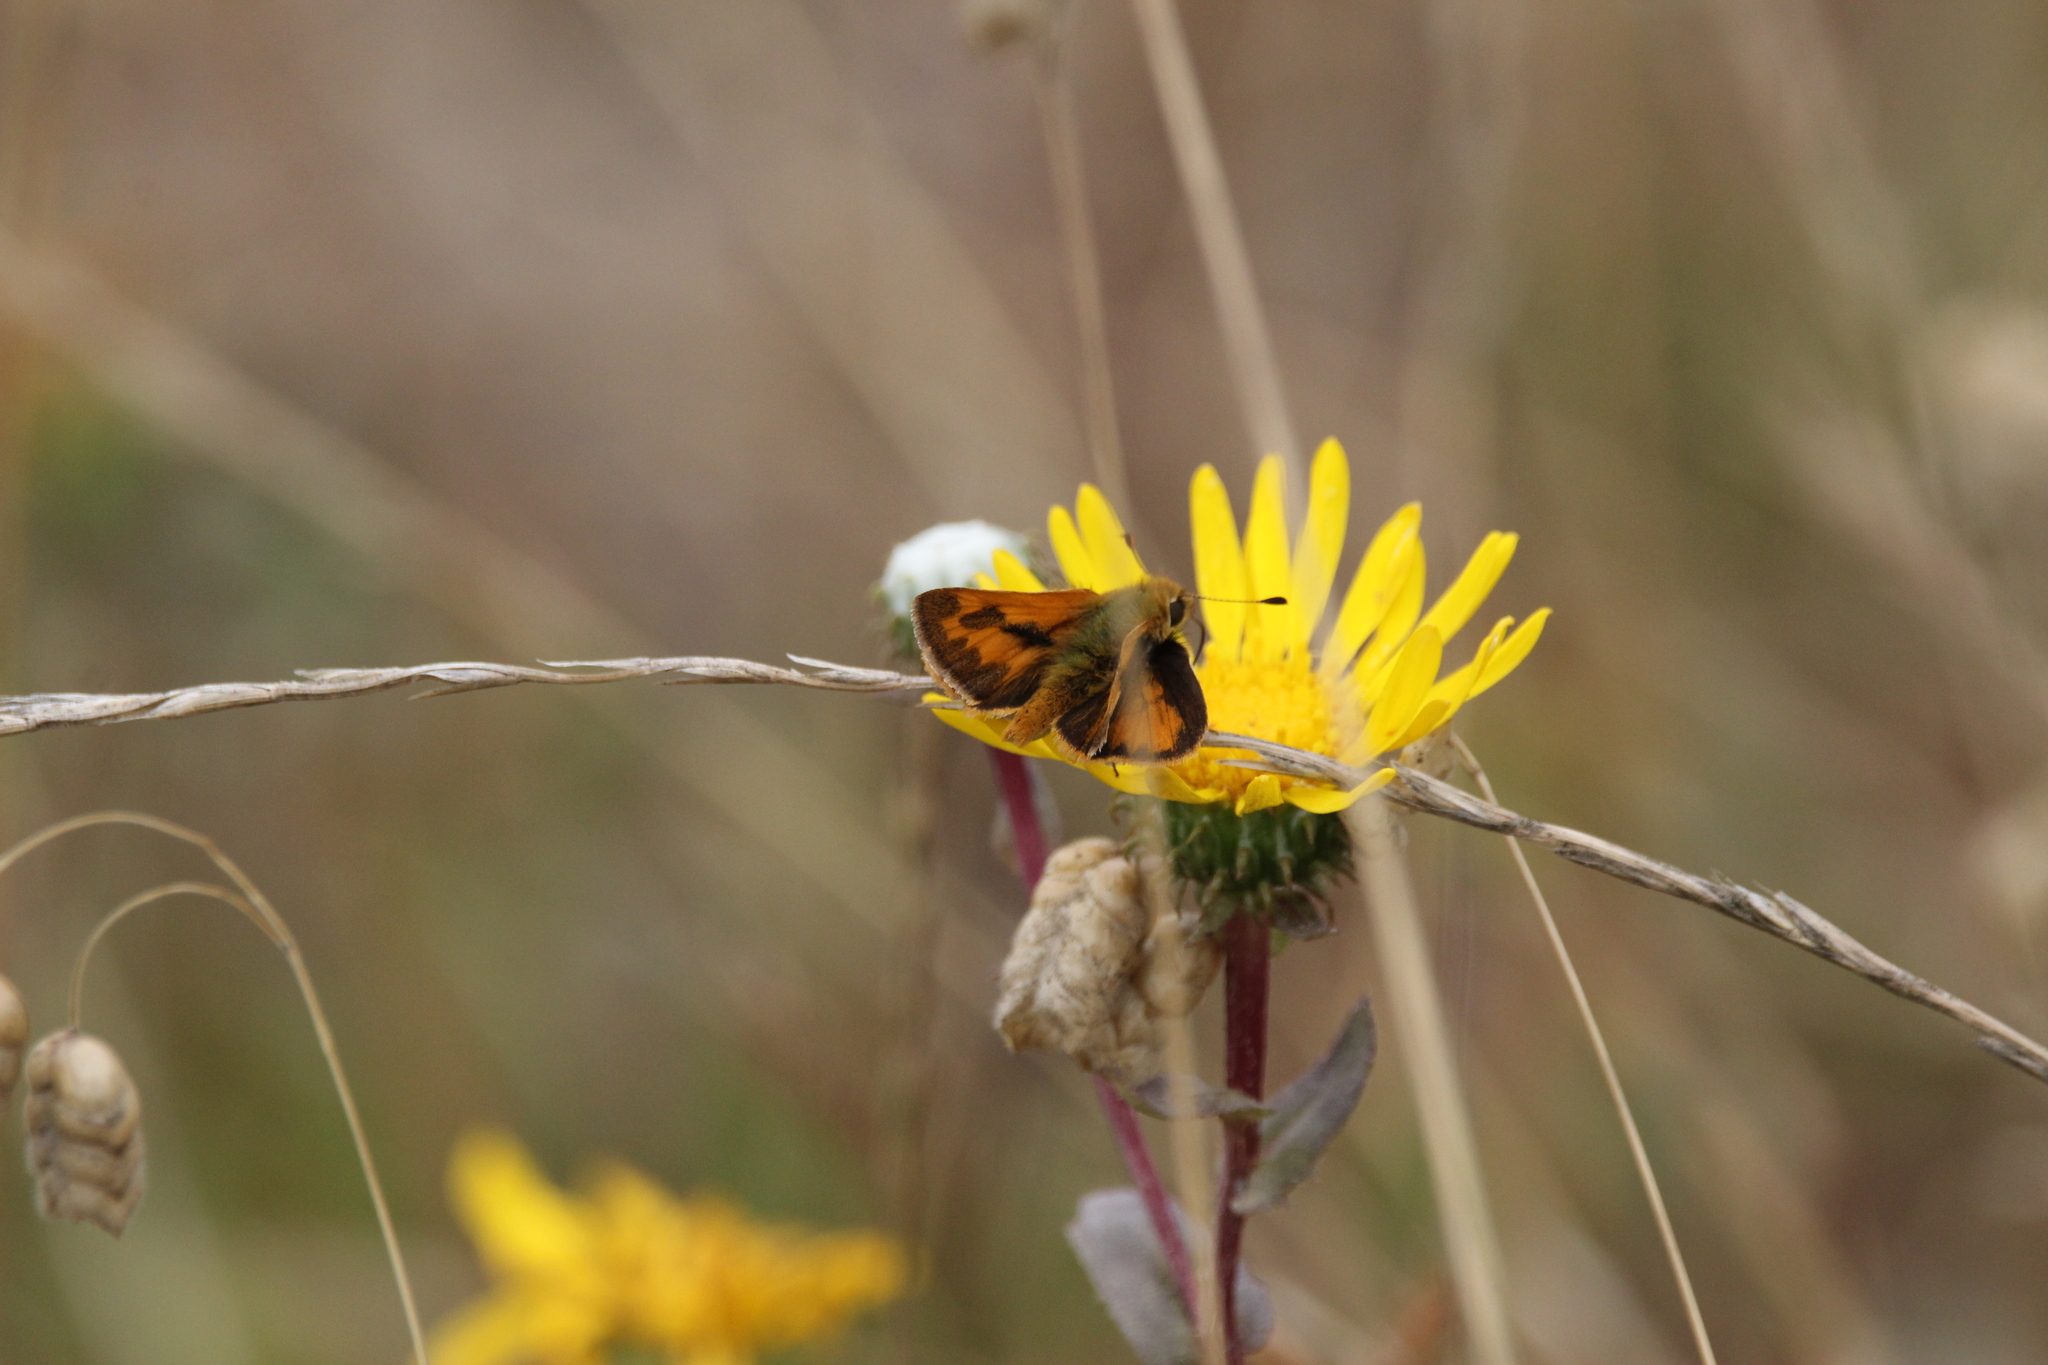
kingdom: Animalia
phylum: Arthropoda
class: Insecta
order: Lepidoptera
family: Hesperiidae
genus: Ochlodes
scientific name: Ochlodes sylvanoides
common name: Woodland skipper
